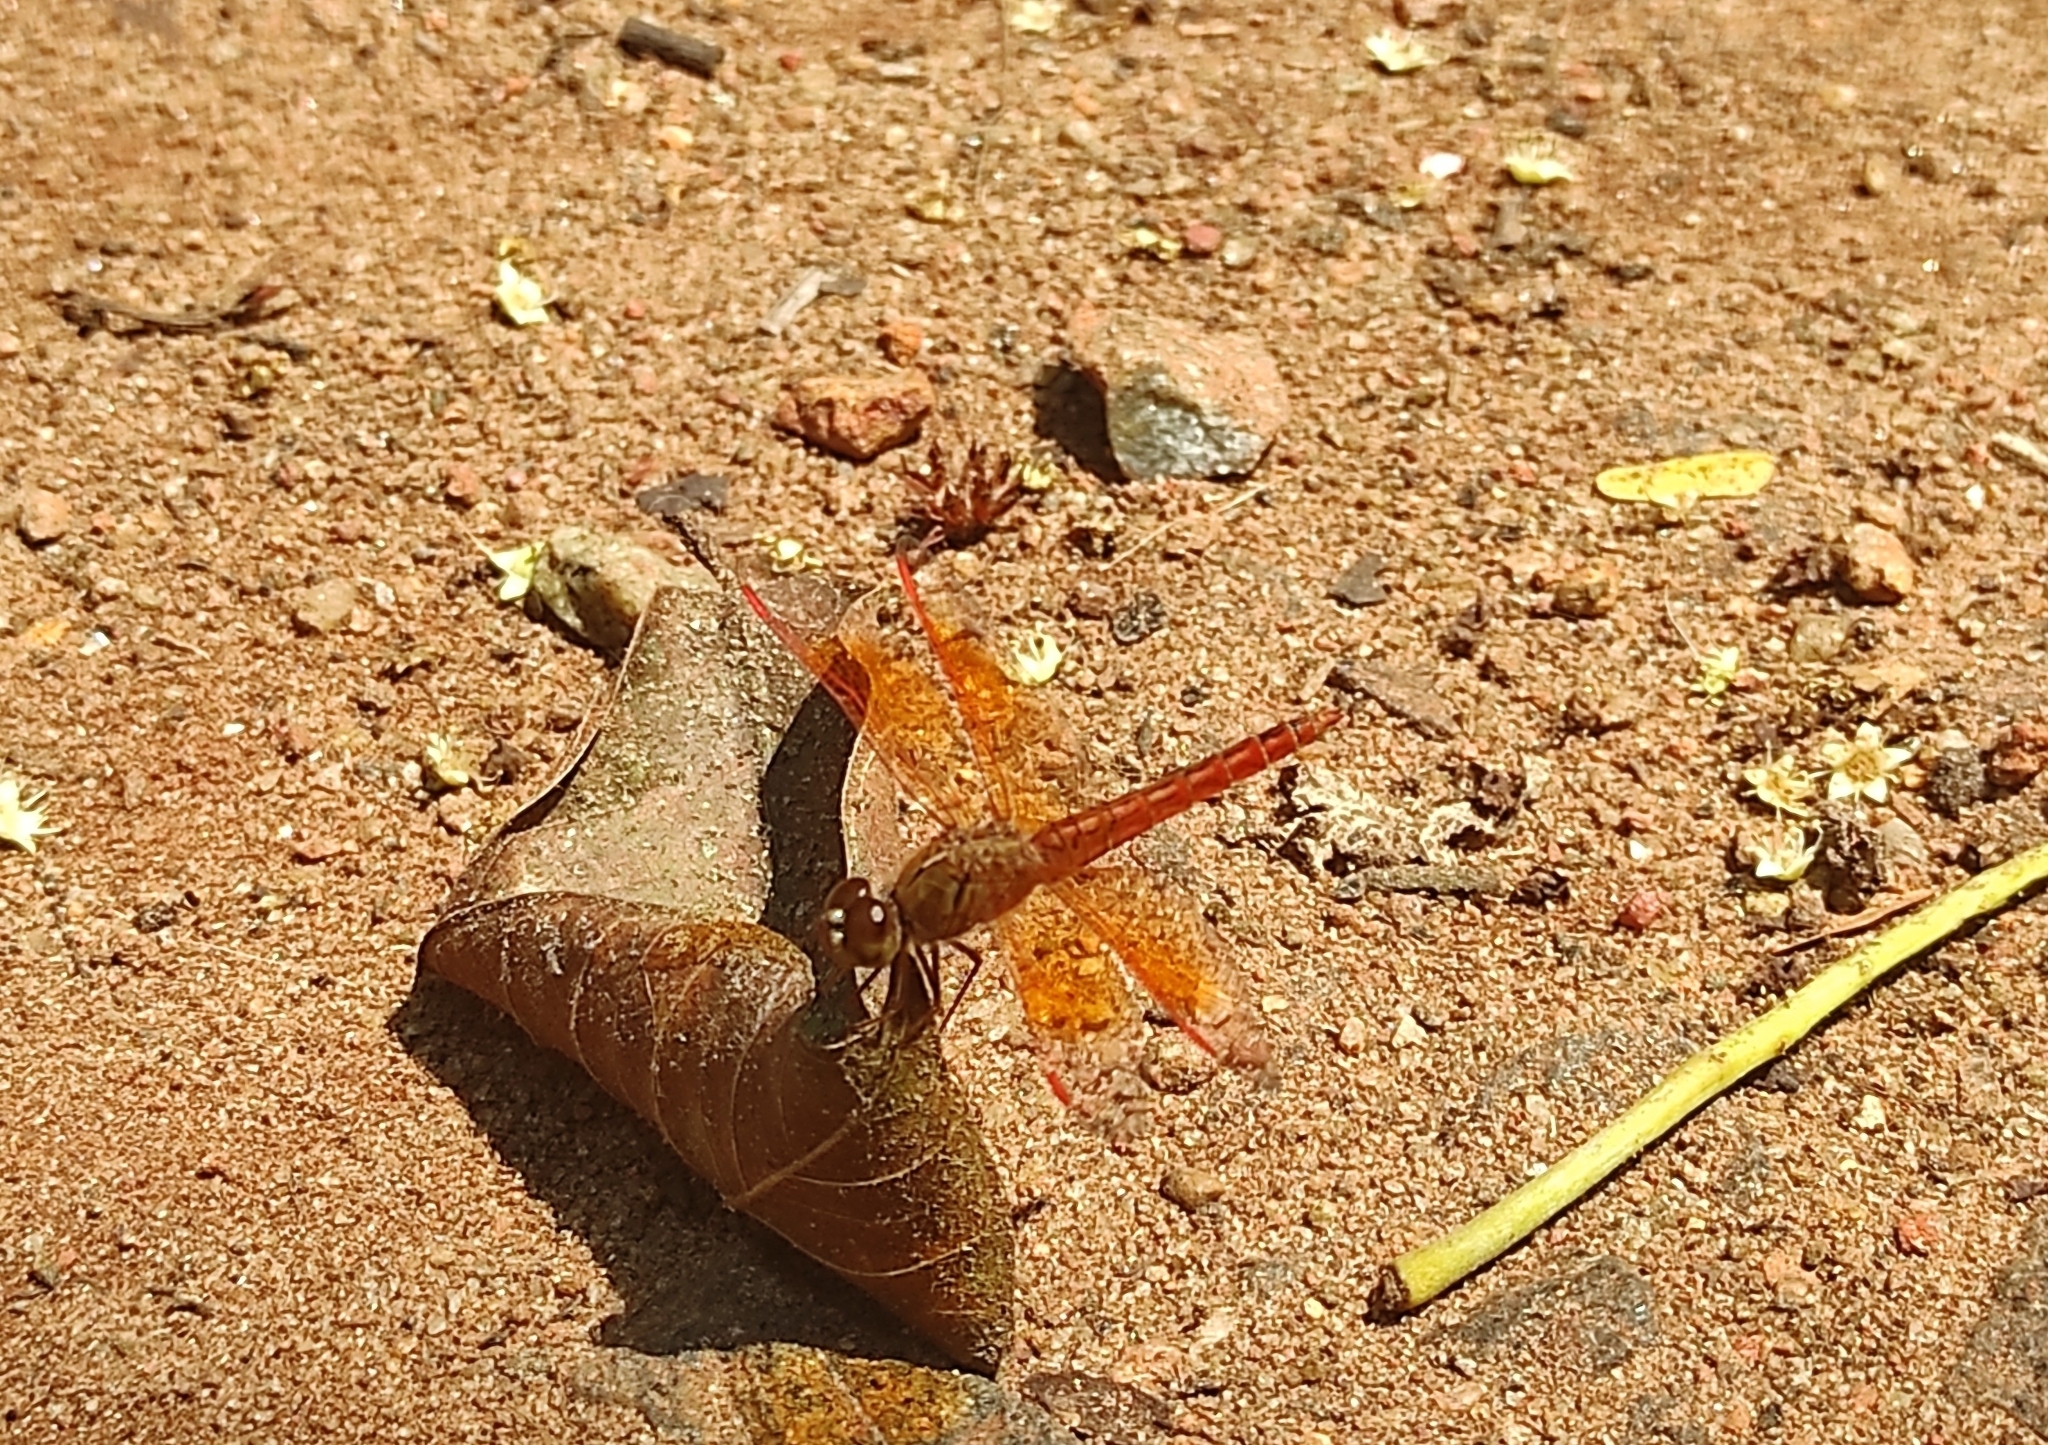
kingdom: Animalia
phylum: Arthropoda
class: Insecta
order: Odonata
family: Libellulidae
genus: Brachythemis
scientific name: Brachythemis contaminata
